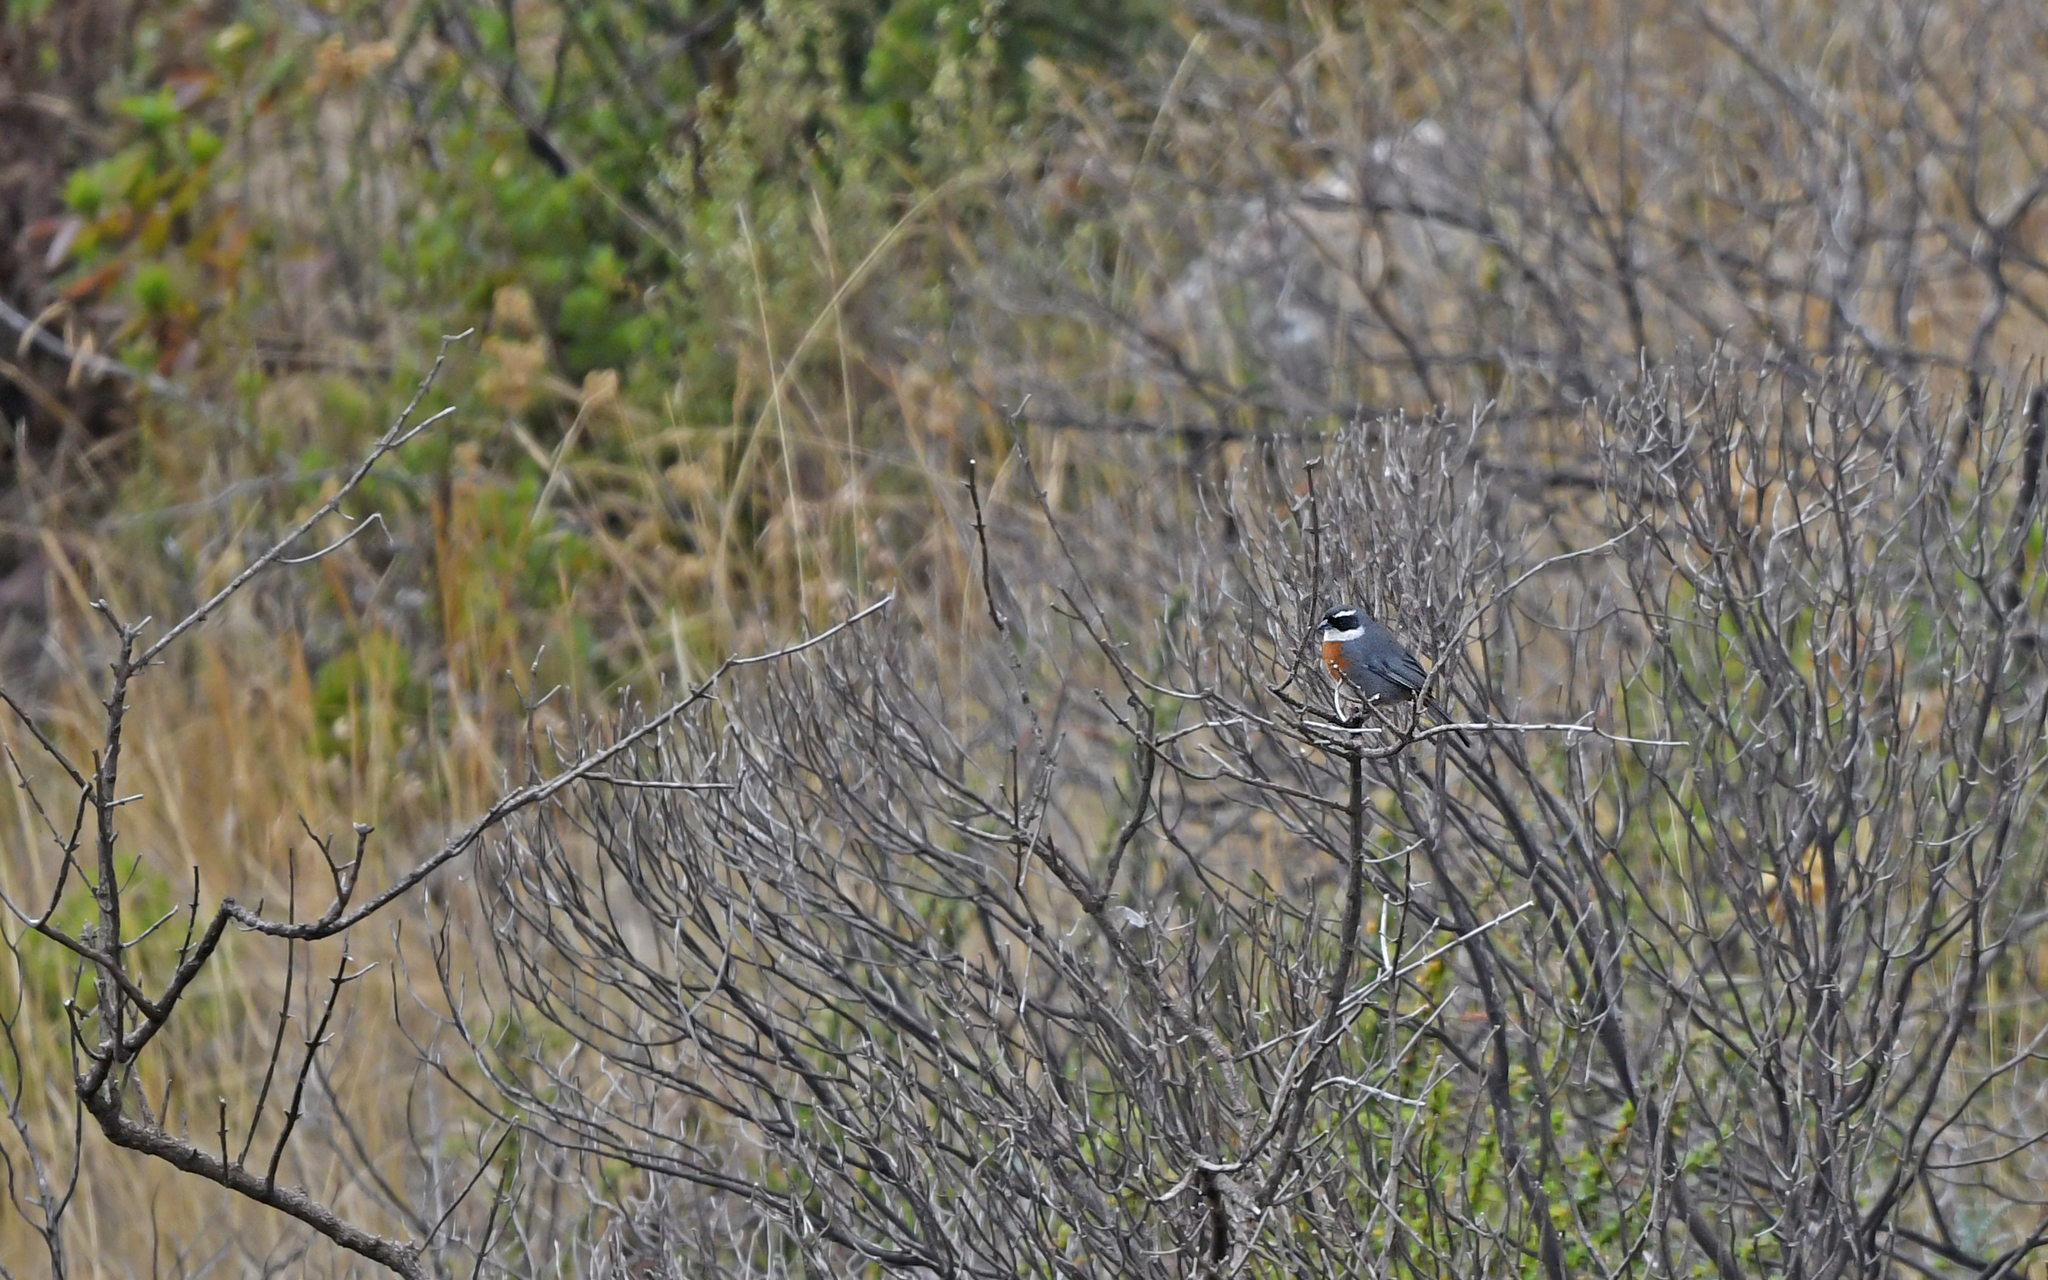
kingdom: Animalia
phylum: Chordata
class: Aves
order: Passeriformes
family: Thraupidae
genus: Poospizopsis
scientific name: Poospizopsis caesar
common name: Chestnut-breasted mountain-finch
